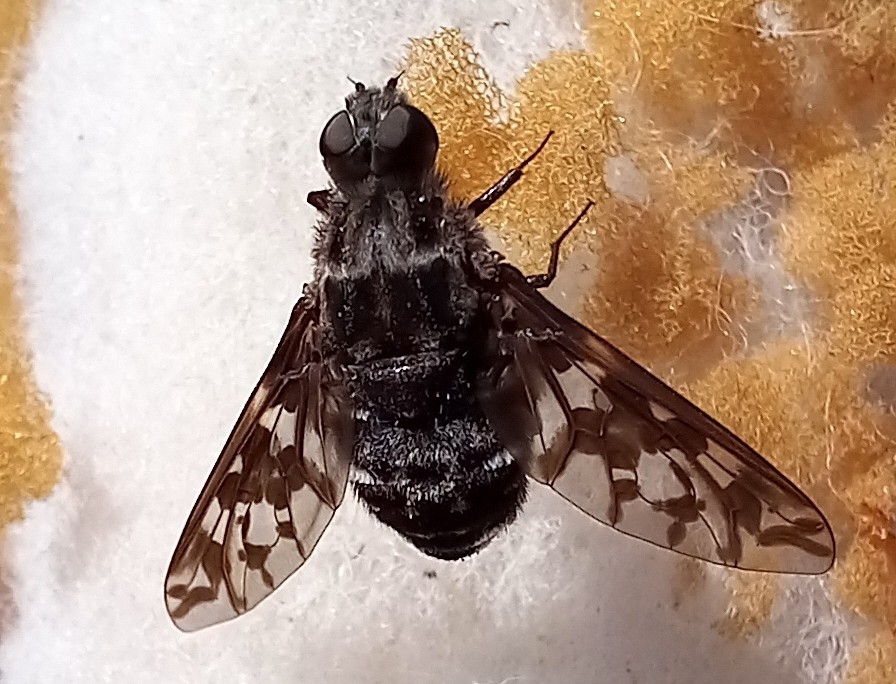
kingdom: Animalia
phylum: Arthropoda
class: Insecta
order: Diptera
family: Bombyliidae
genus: Xenox
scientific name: Xenox habrosus
